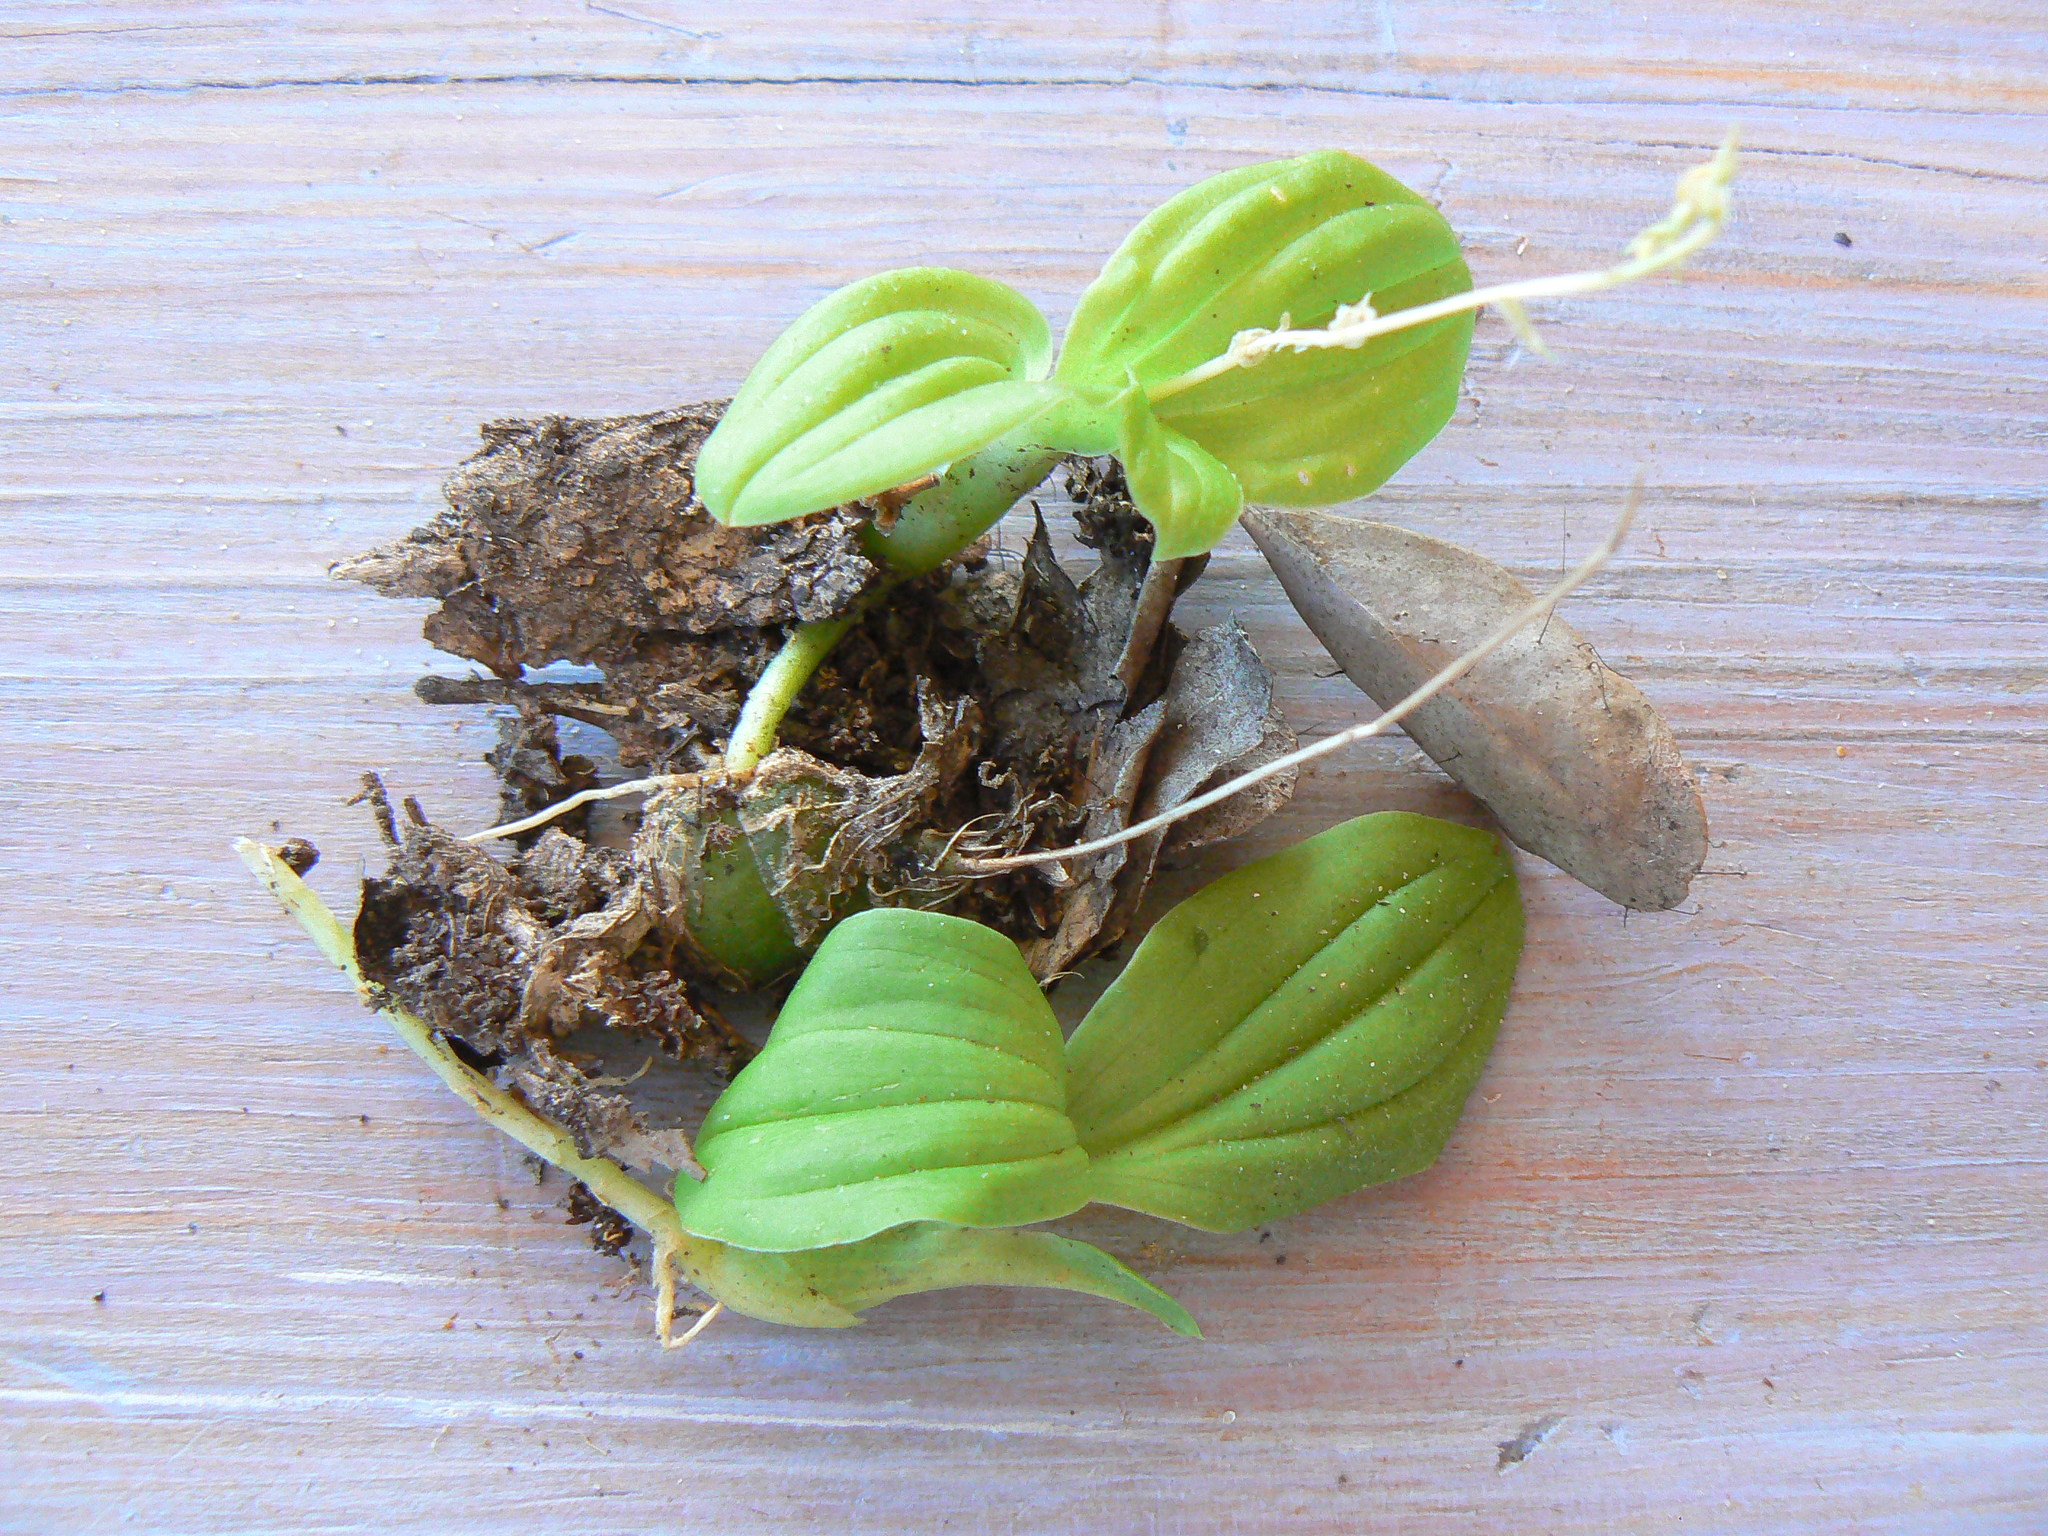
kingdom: Plantae
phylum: Tracheophyta
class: Liliopsida
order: Asparagales
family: Orchidaceae
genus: Liparis
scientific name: Liparis remota
